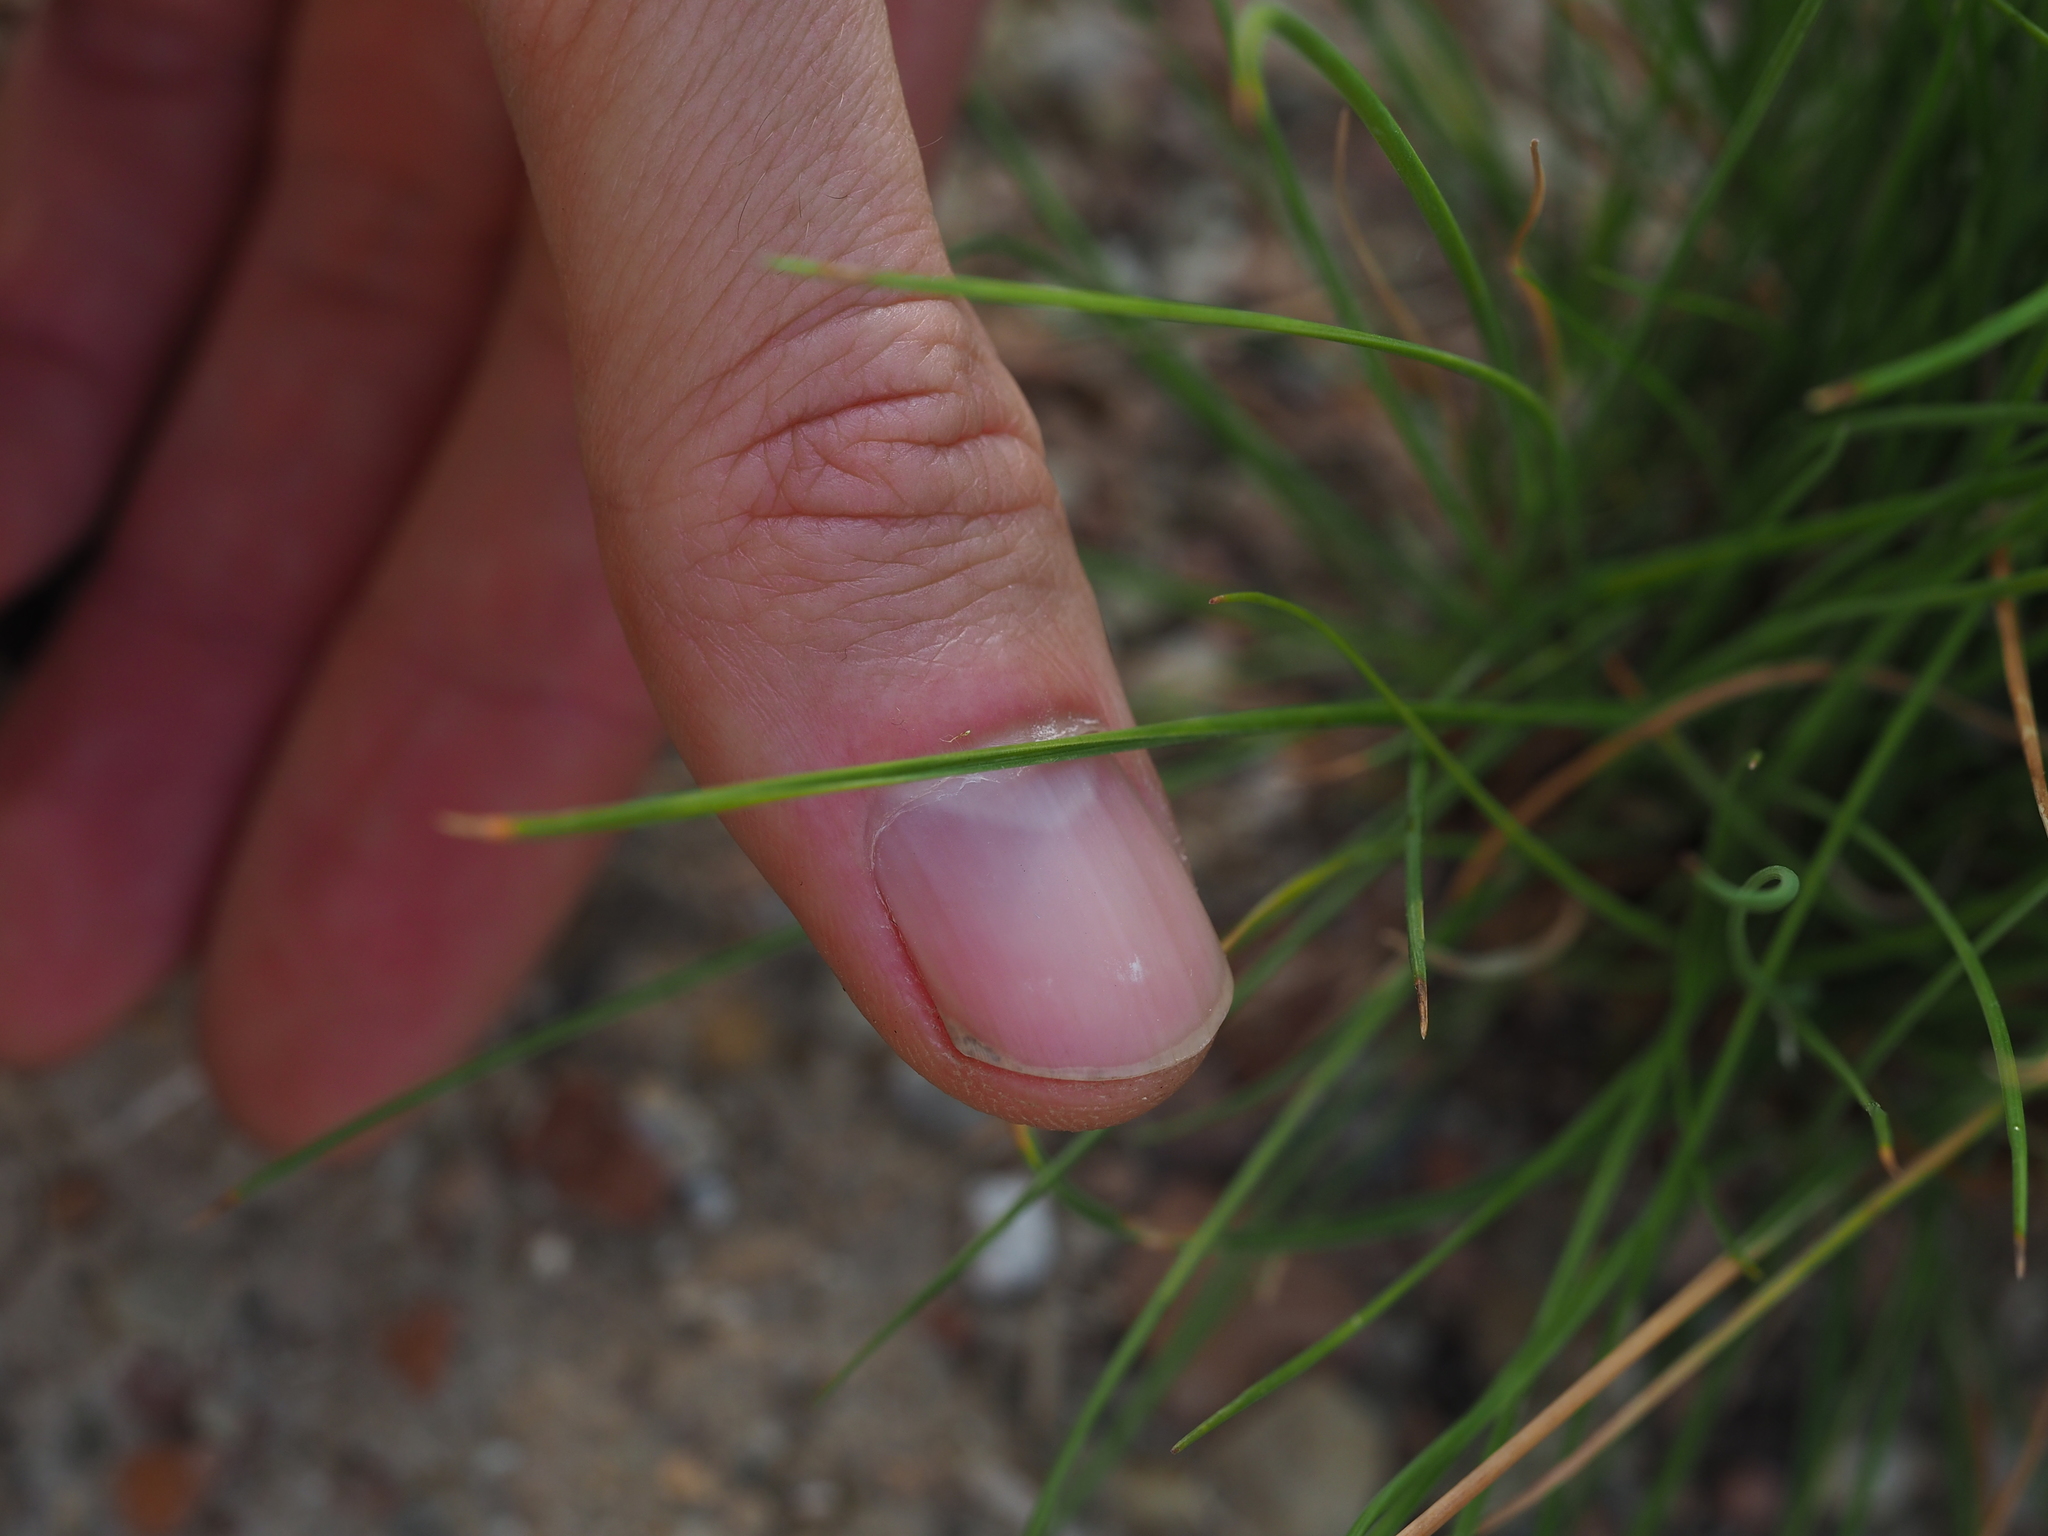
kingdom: Plantae
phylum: Tracheophyta
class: Liliopsida
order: Poales
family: Poaceae
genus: Festuca
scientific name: Festuca rubra
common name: Red fescue
